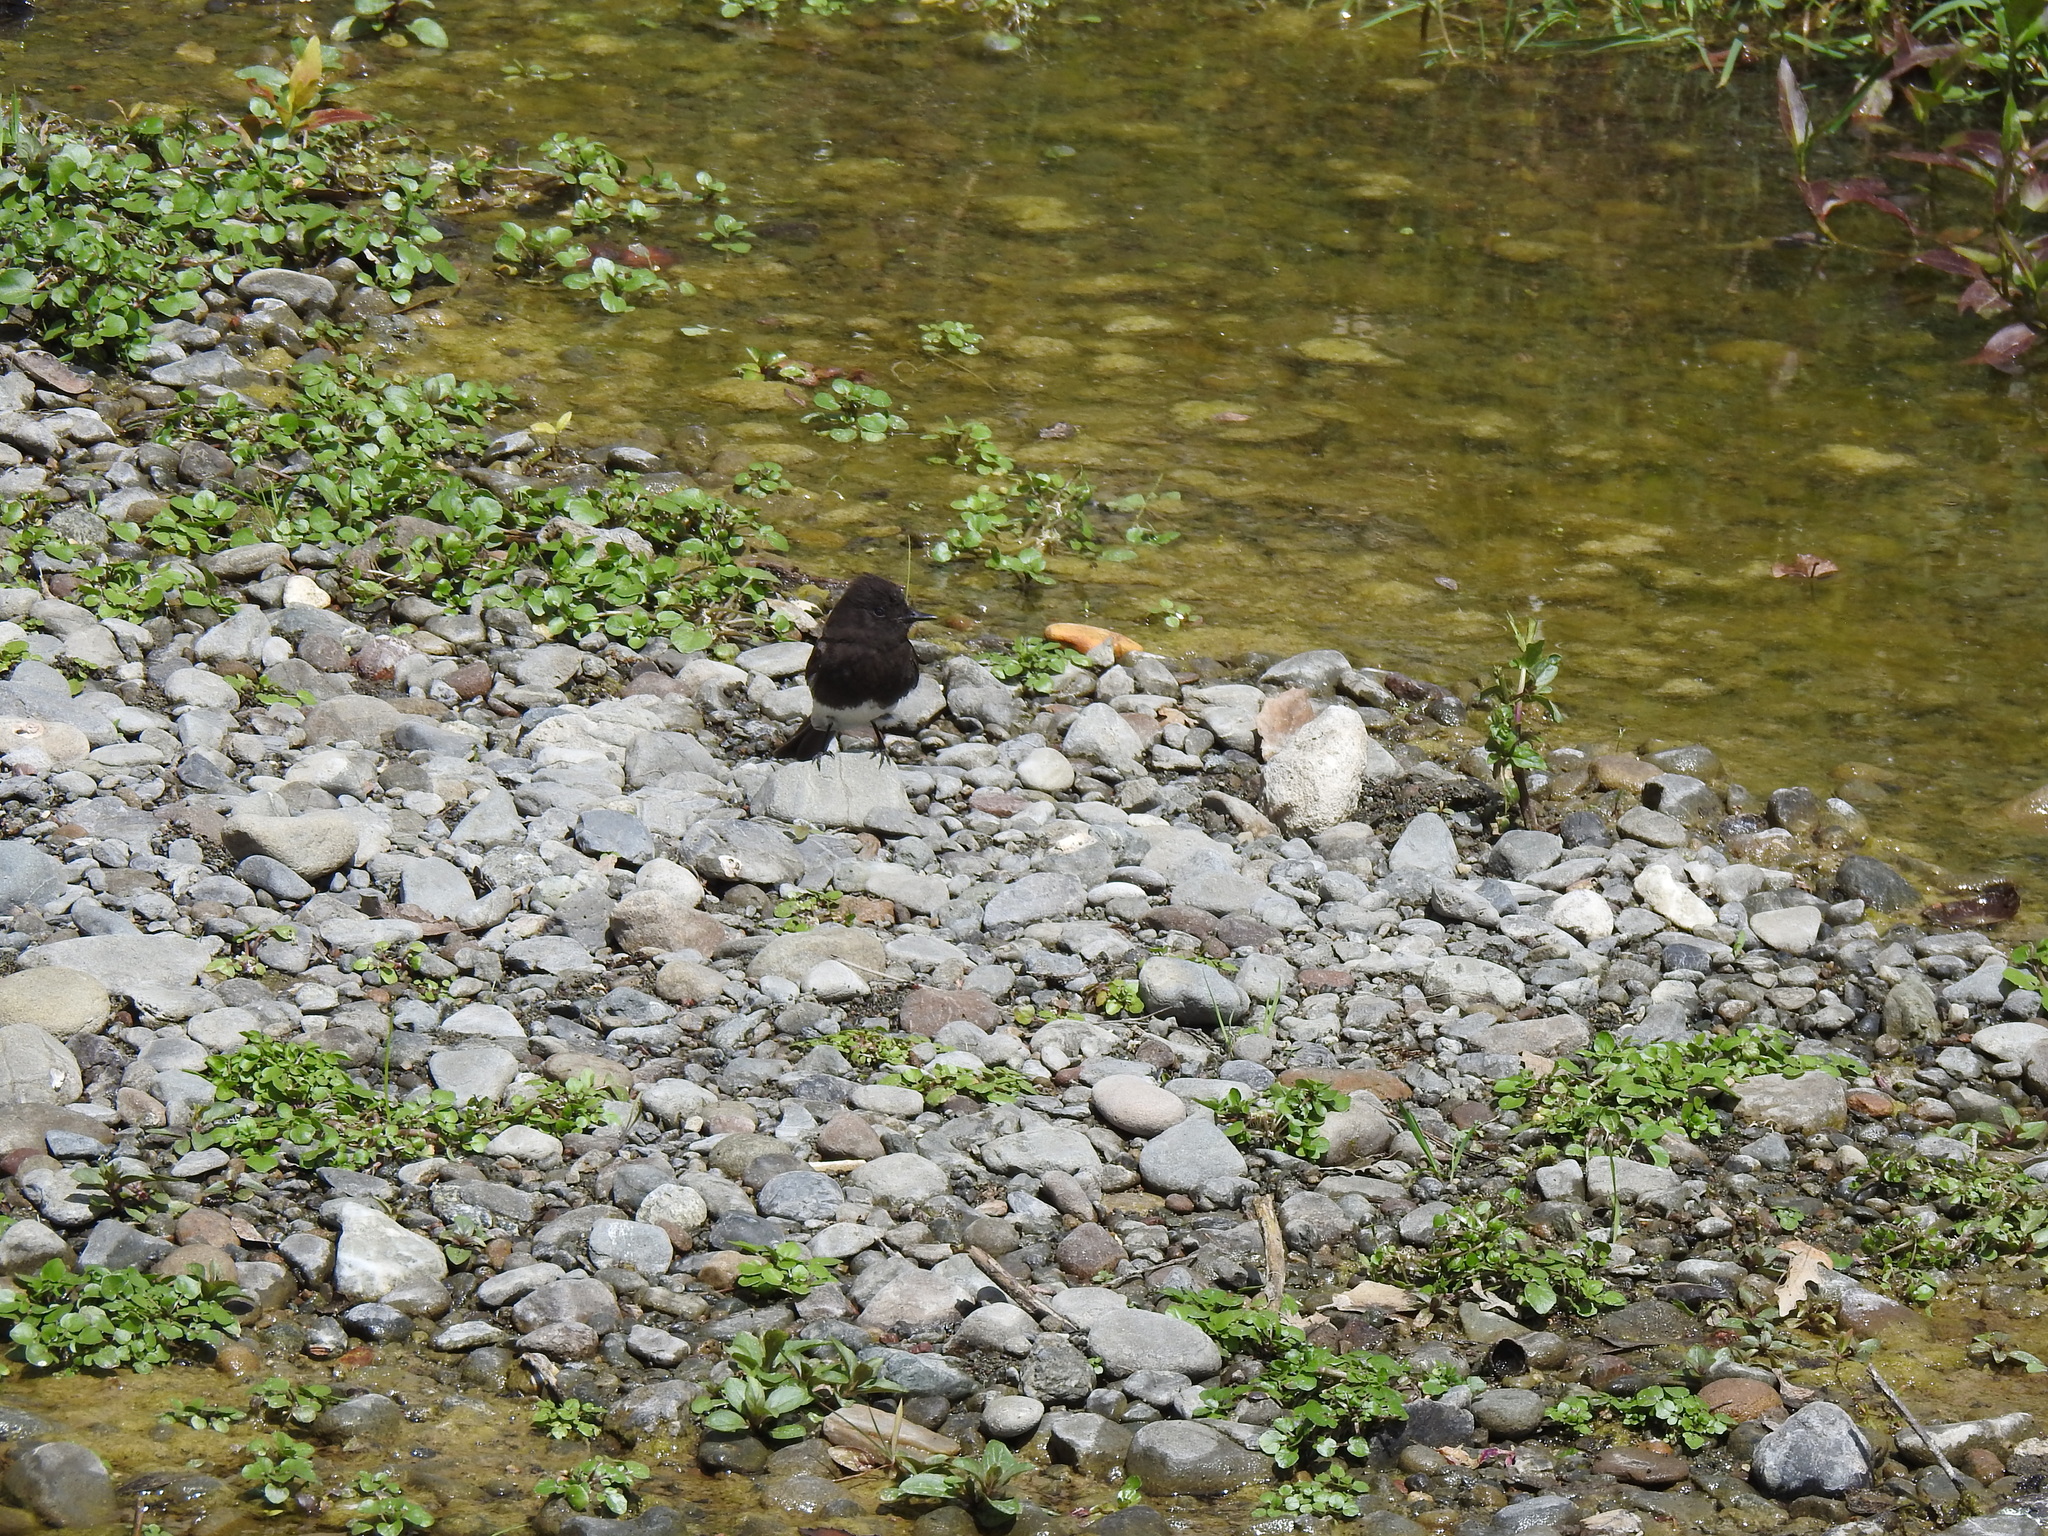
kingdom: Animalia
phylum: Chordata
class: Aves
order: Passeriformes
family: Tyrannidae
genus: Sayornis
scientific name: Sayornis nigricans
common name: Black phoebe
